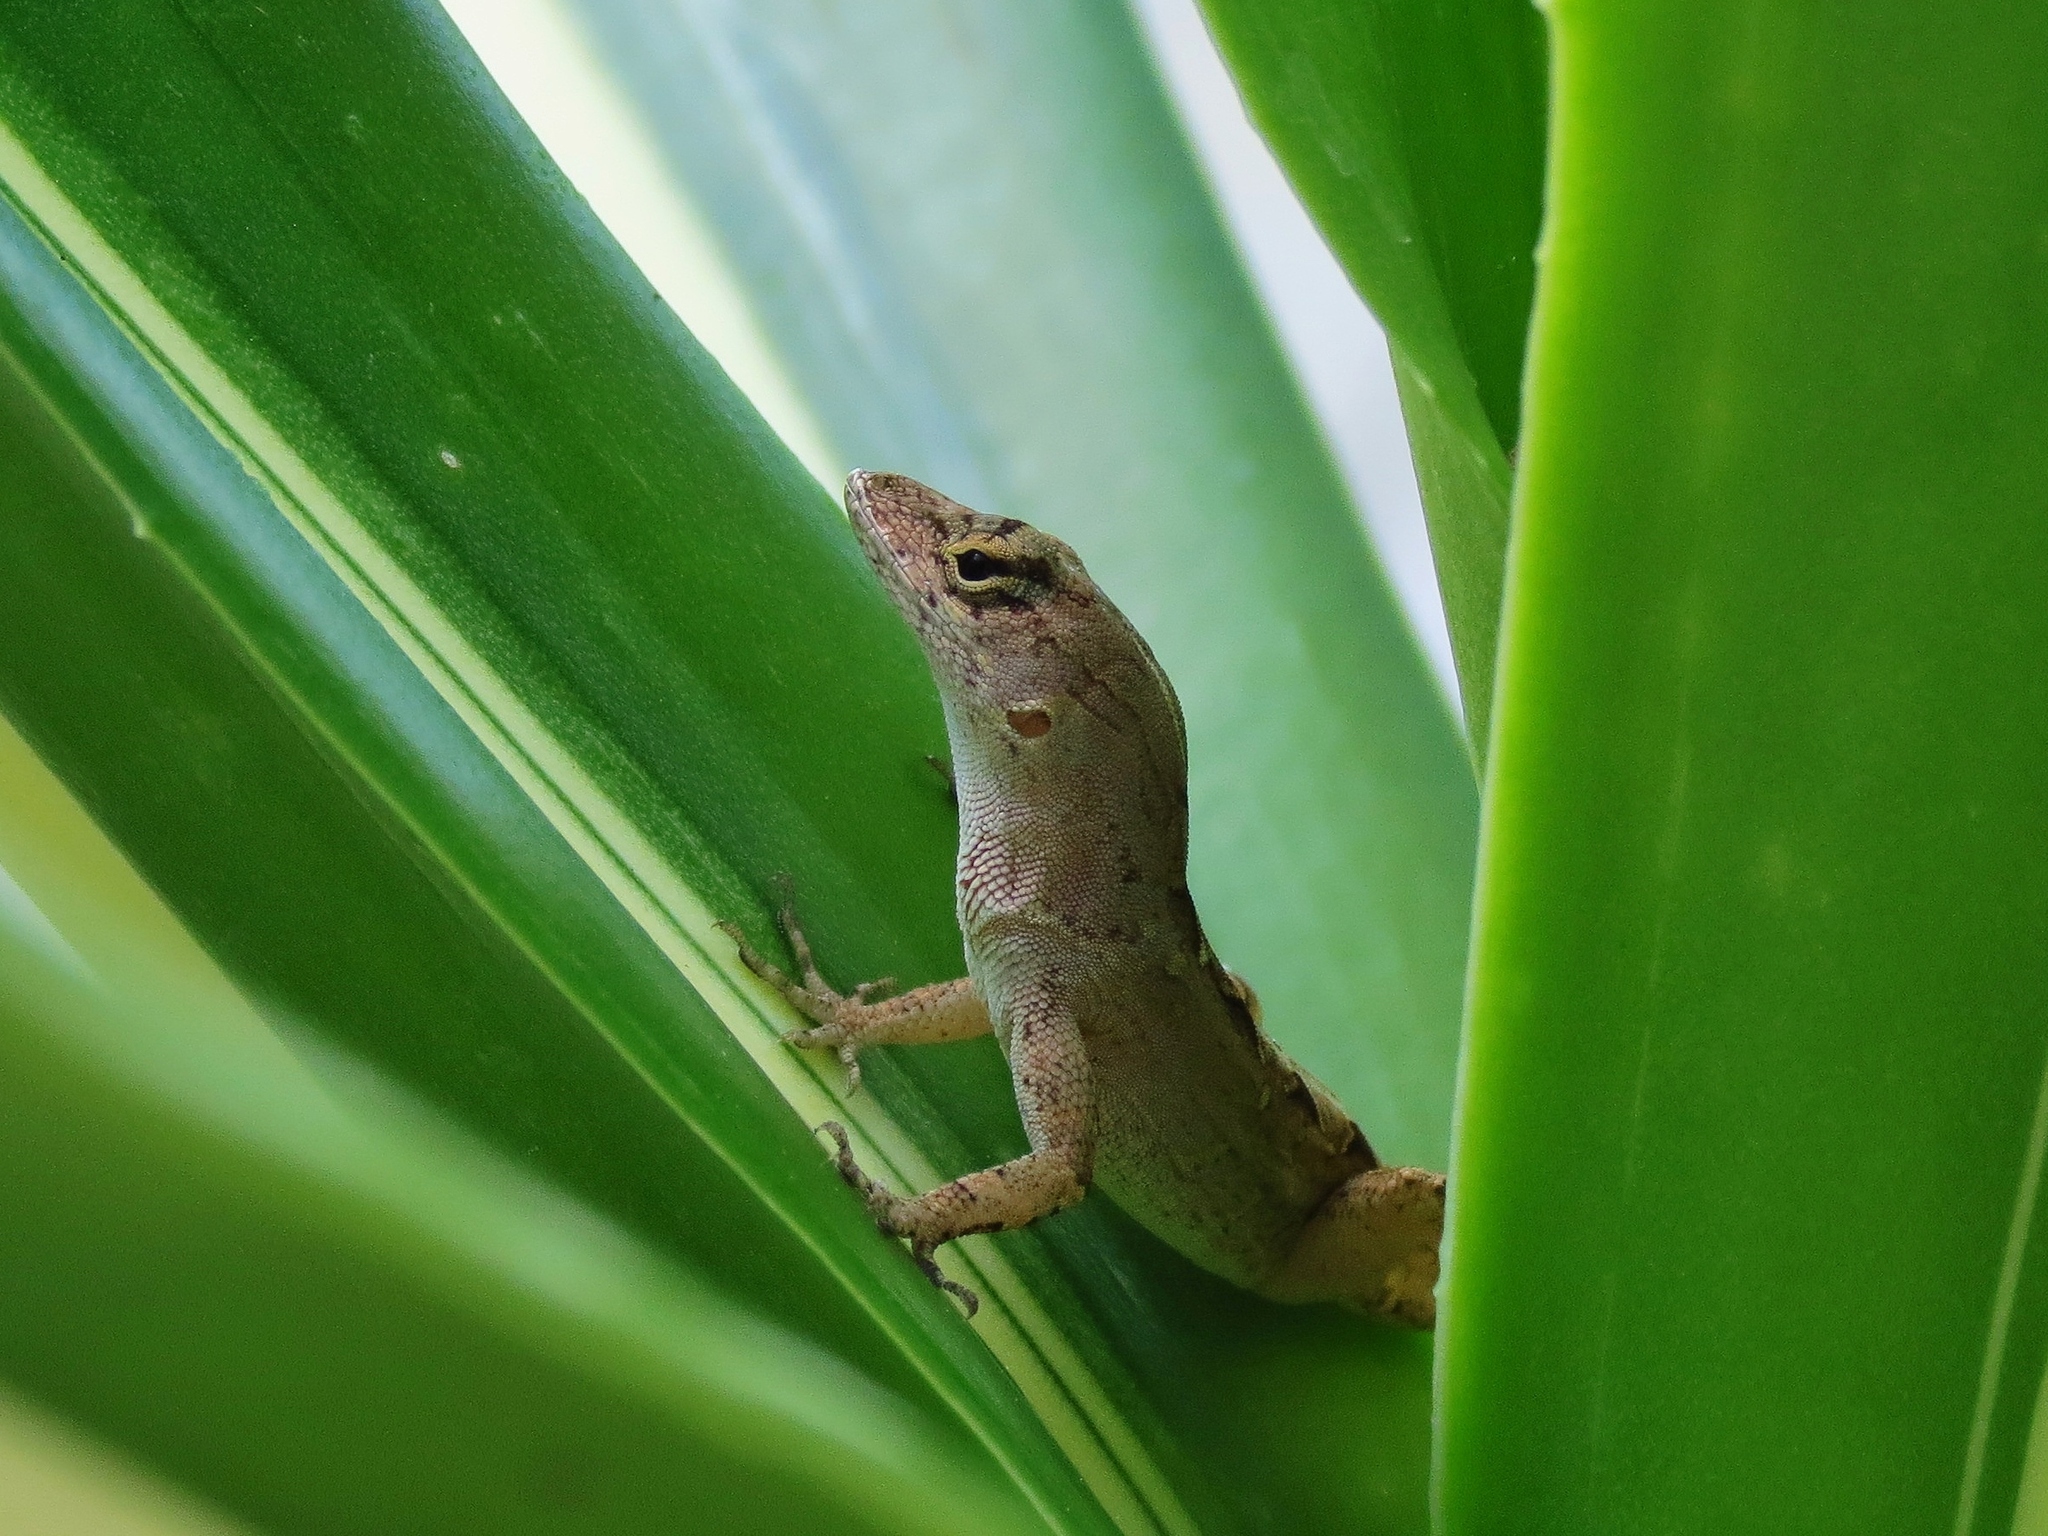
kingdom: Animalia
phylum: Chordata
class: Squamata
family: Dactyloidae
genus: Anolis
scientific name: Anolis sagrei
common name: Brown anole
